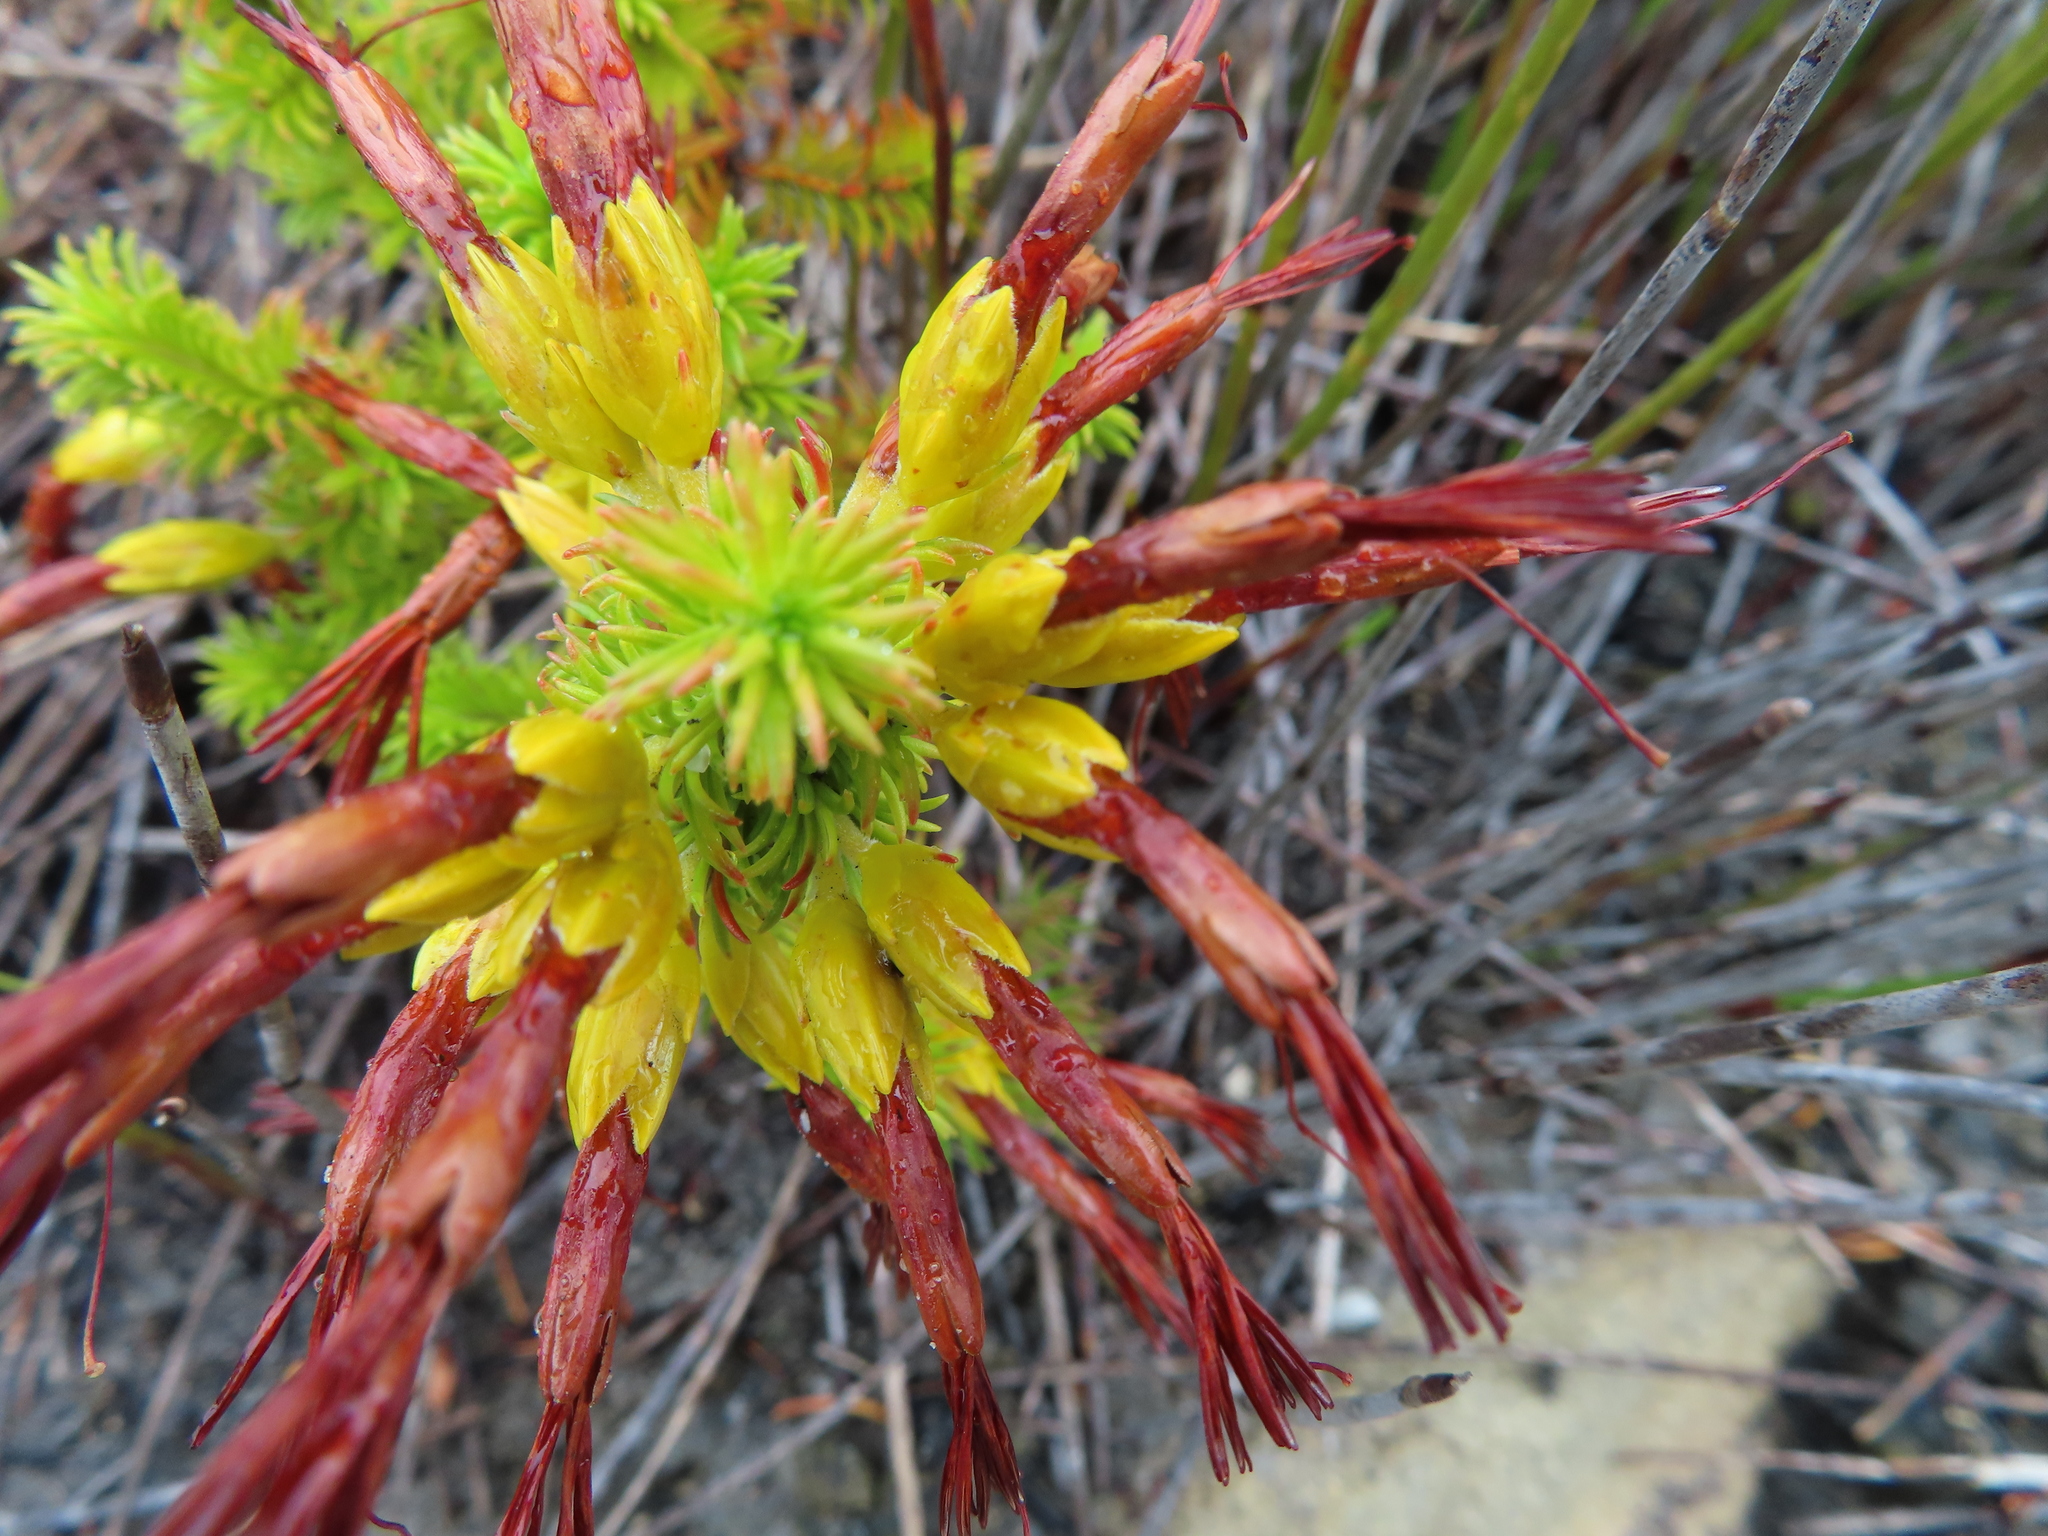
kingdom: Plantae
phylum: Tracheophyta
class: Magnoliopsida
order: Ericales
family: Ericaceae
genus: Erica
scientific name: Erica coccinea
